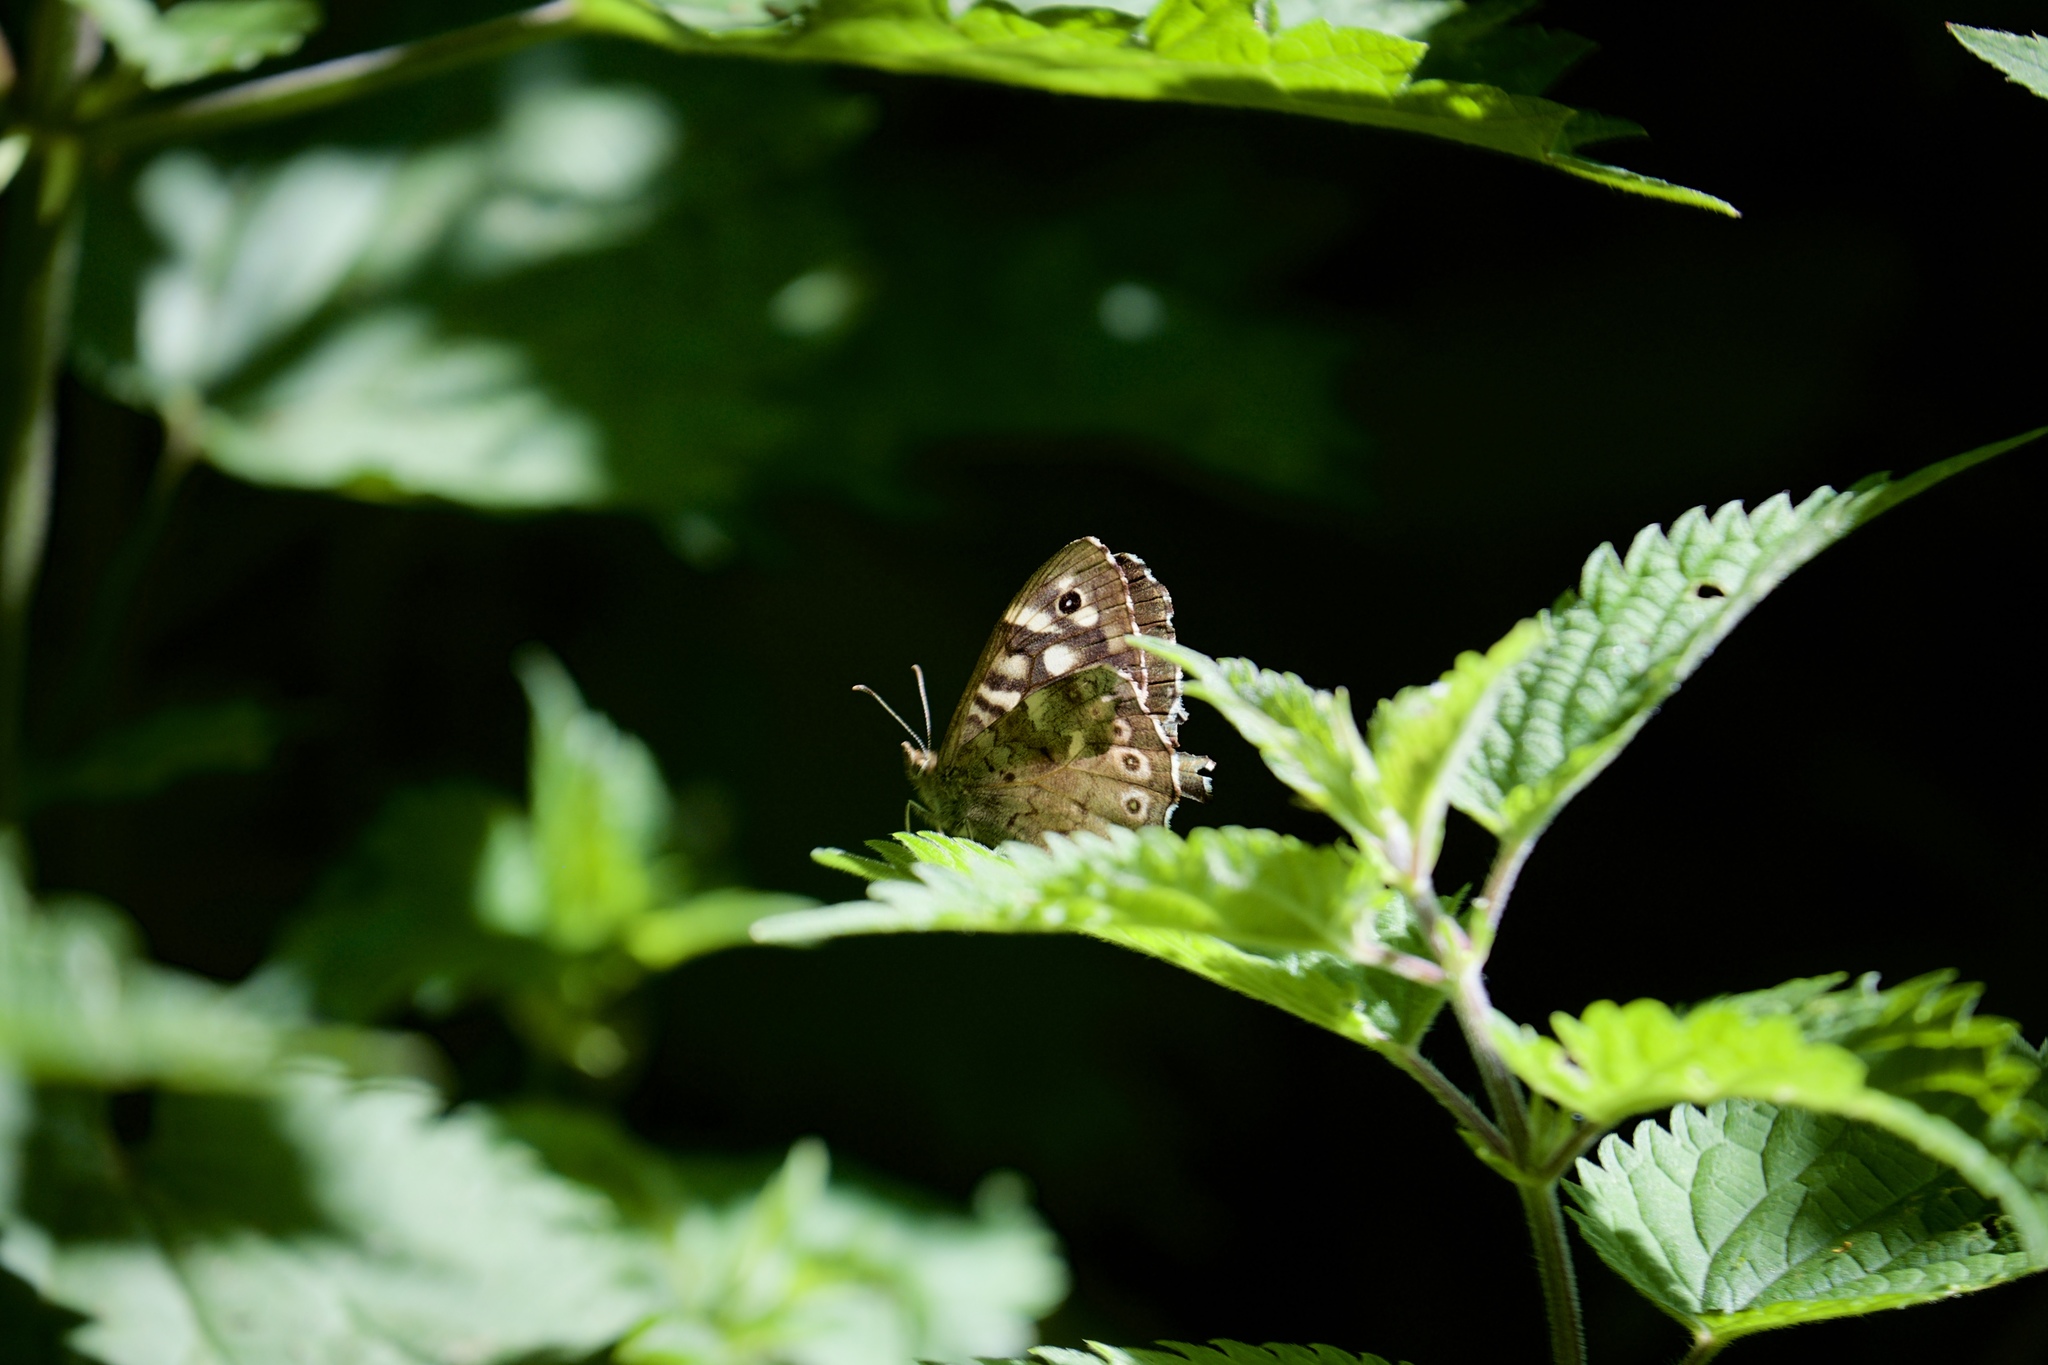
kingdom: Animalia
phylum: Arthropoda
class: Insecta
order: Lepidoptera
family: Nymphalidae
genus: Pararge
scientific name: Pararge aegeria
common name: Speckled wood
